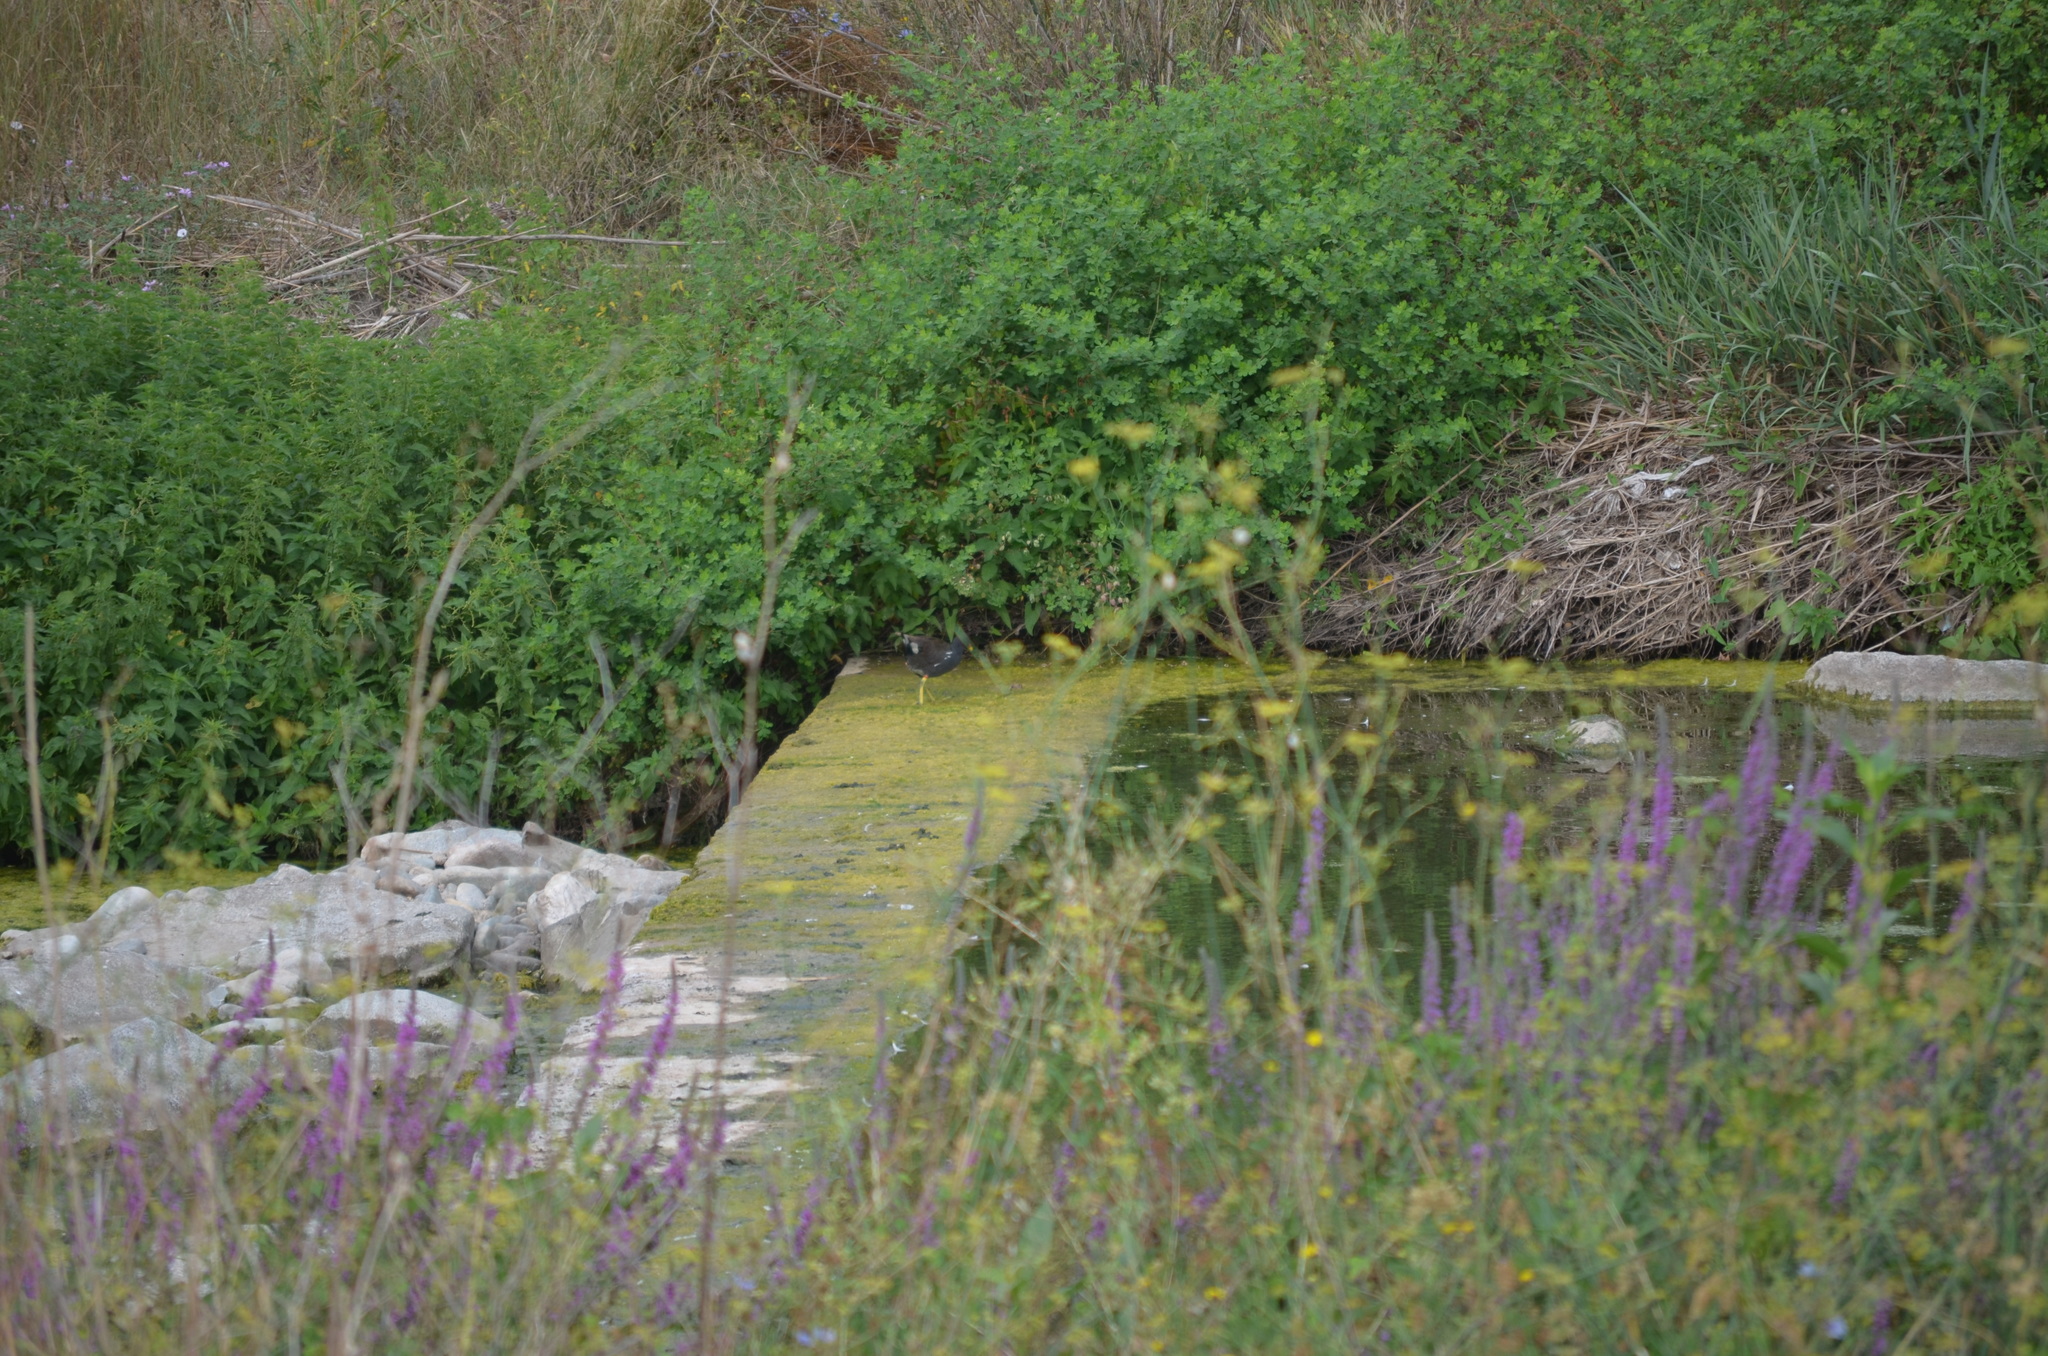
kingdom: Animalia
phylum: Chordata
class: Aves
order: Gruiformes
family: Rallidae
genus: Gallinula
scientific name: Gallinula chloropus
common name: Common moorhen
